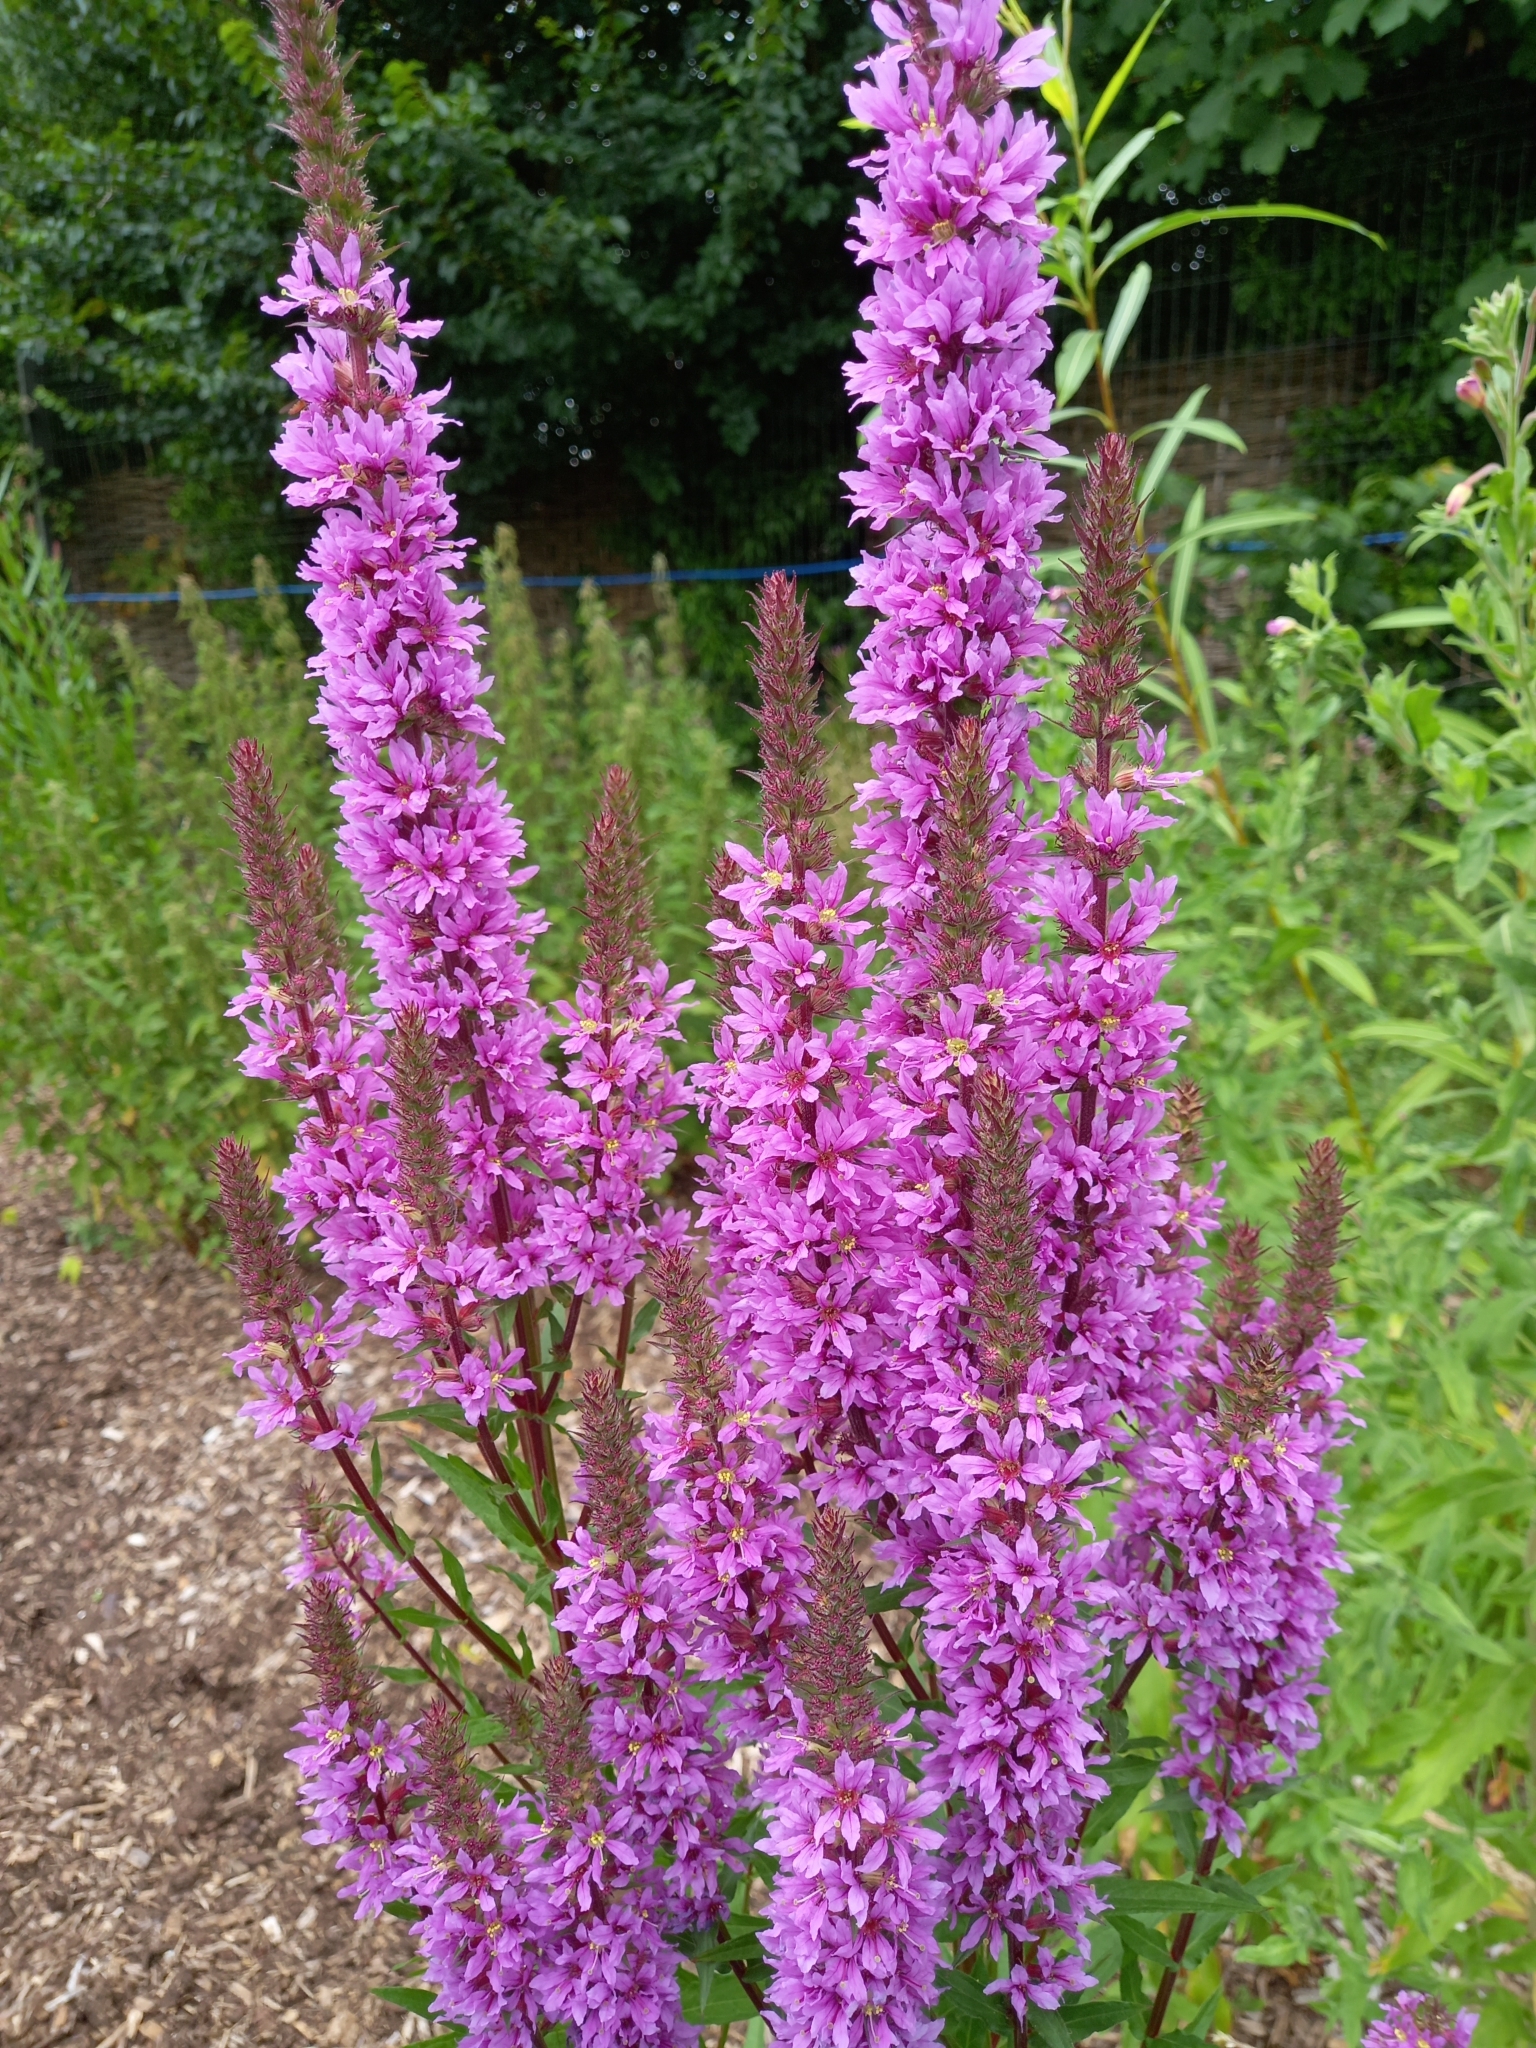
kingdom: Plantae
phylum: Tracheophyta
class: Magnoliopsida
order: Myrtales
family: Lythraceae
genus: Lythrum
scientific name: Lythrum salicaria
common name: Purple loosestrife
